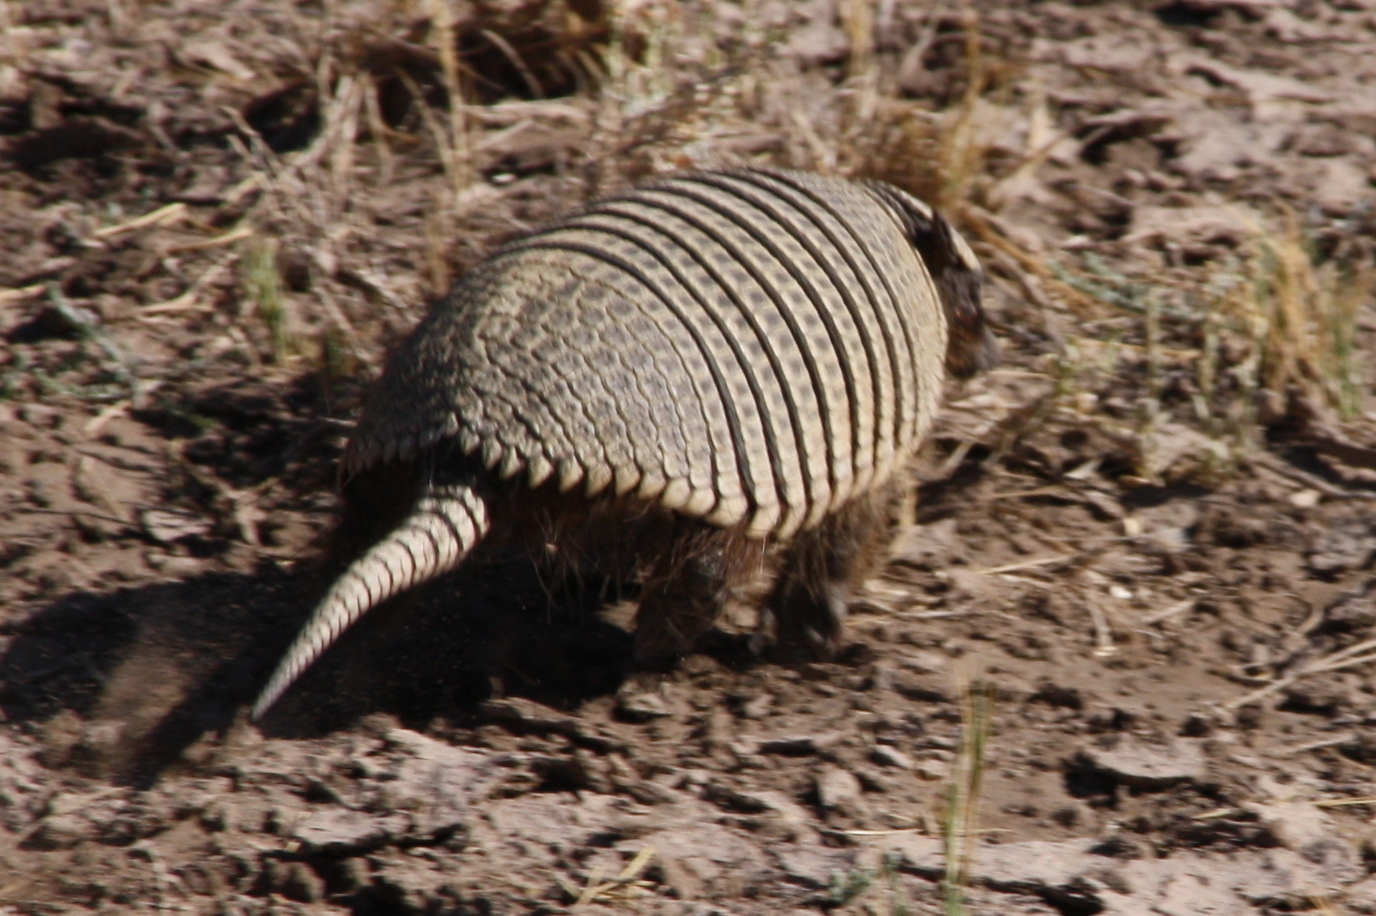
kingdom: Animalia
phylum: Chordata
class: Mammalia
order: Cingulata
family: Dasypodidae
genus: Zaedyus
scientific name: Zaedyus pichiy
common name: Pichi
